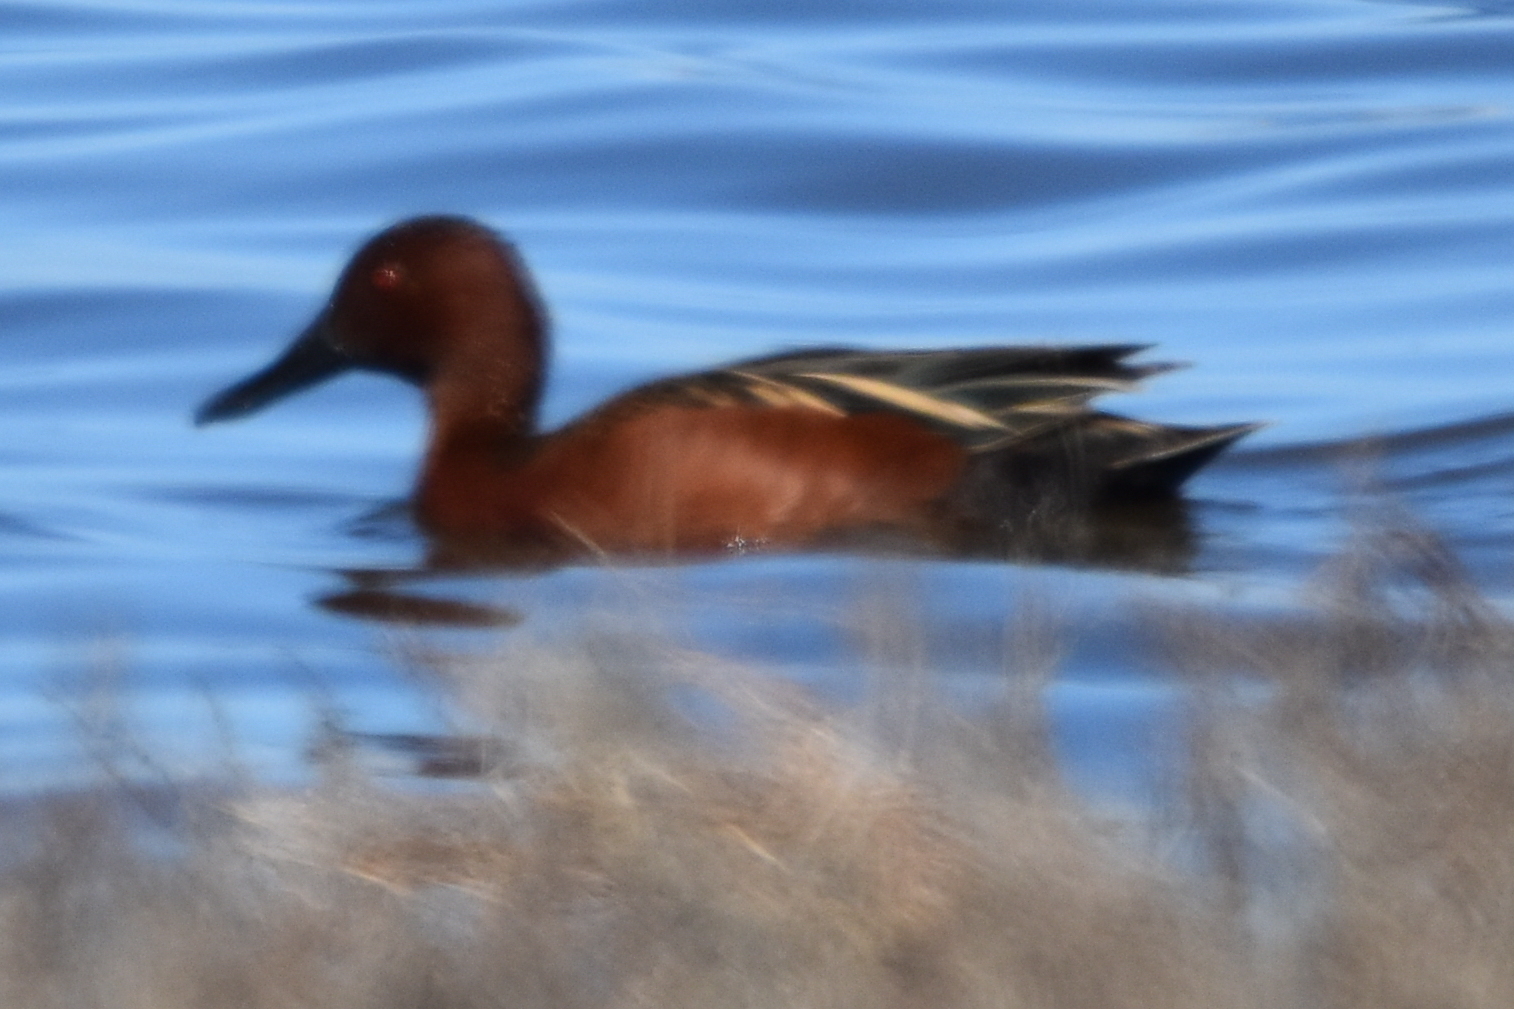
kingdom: Animalia
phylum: Chordata
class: Aves
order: Anseriformes
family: Anatidae
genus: Spatula
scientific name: Spatula cyanoptera
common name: Cinnamon teal
